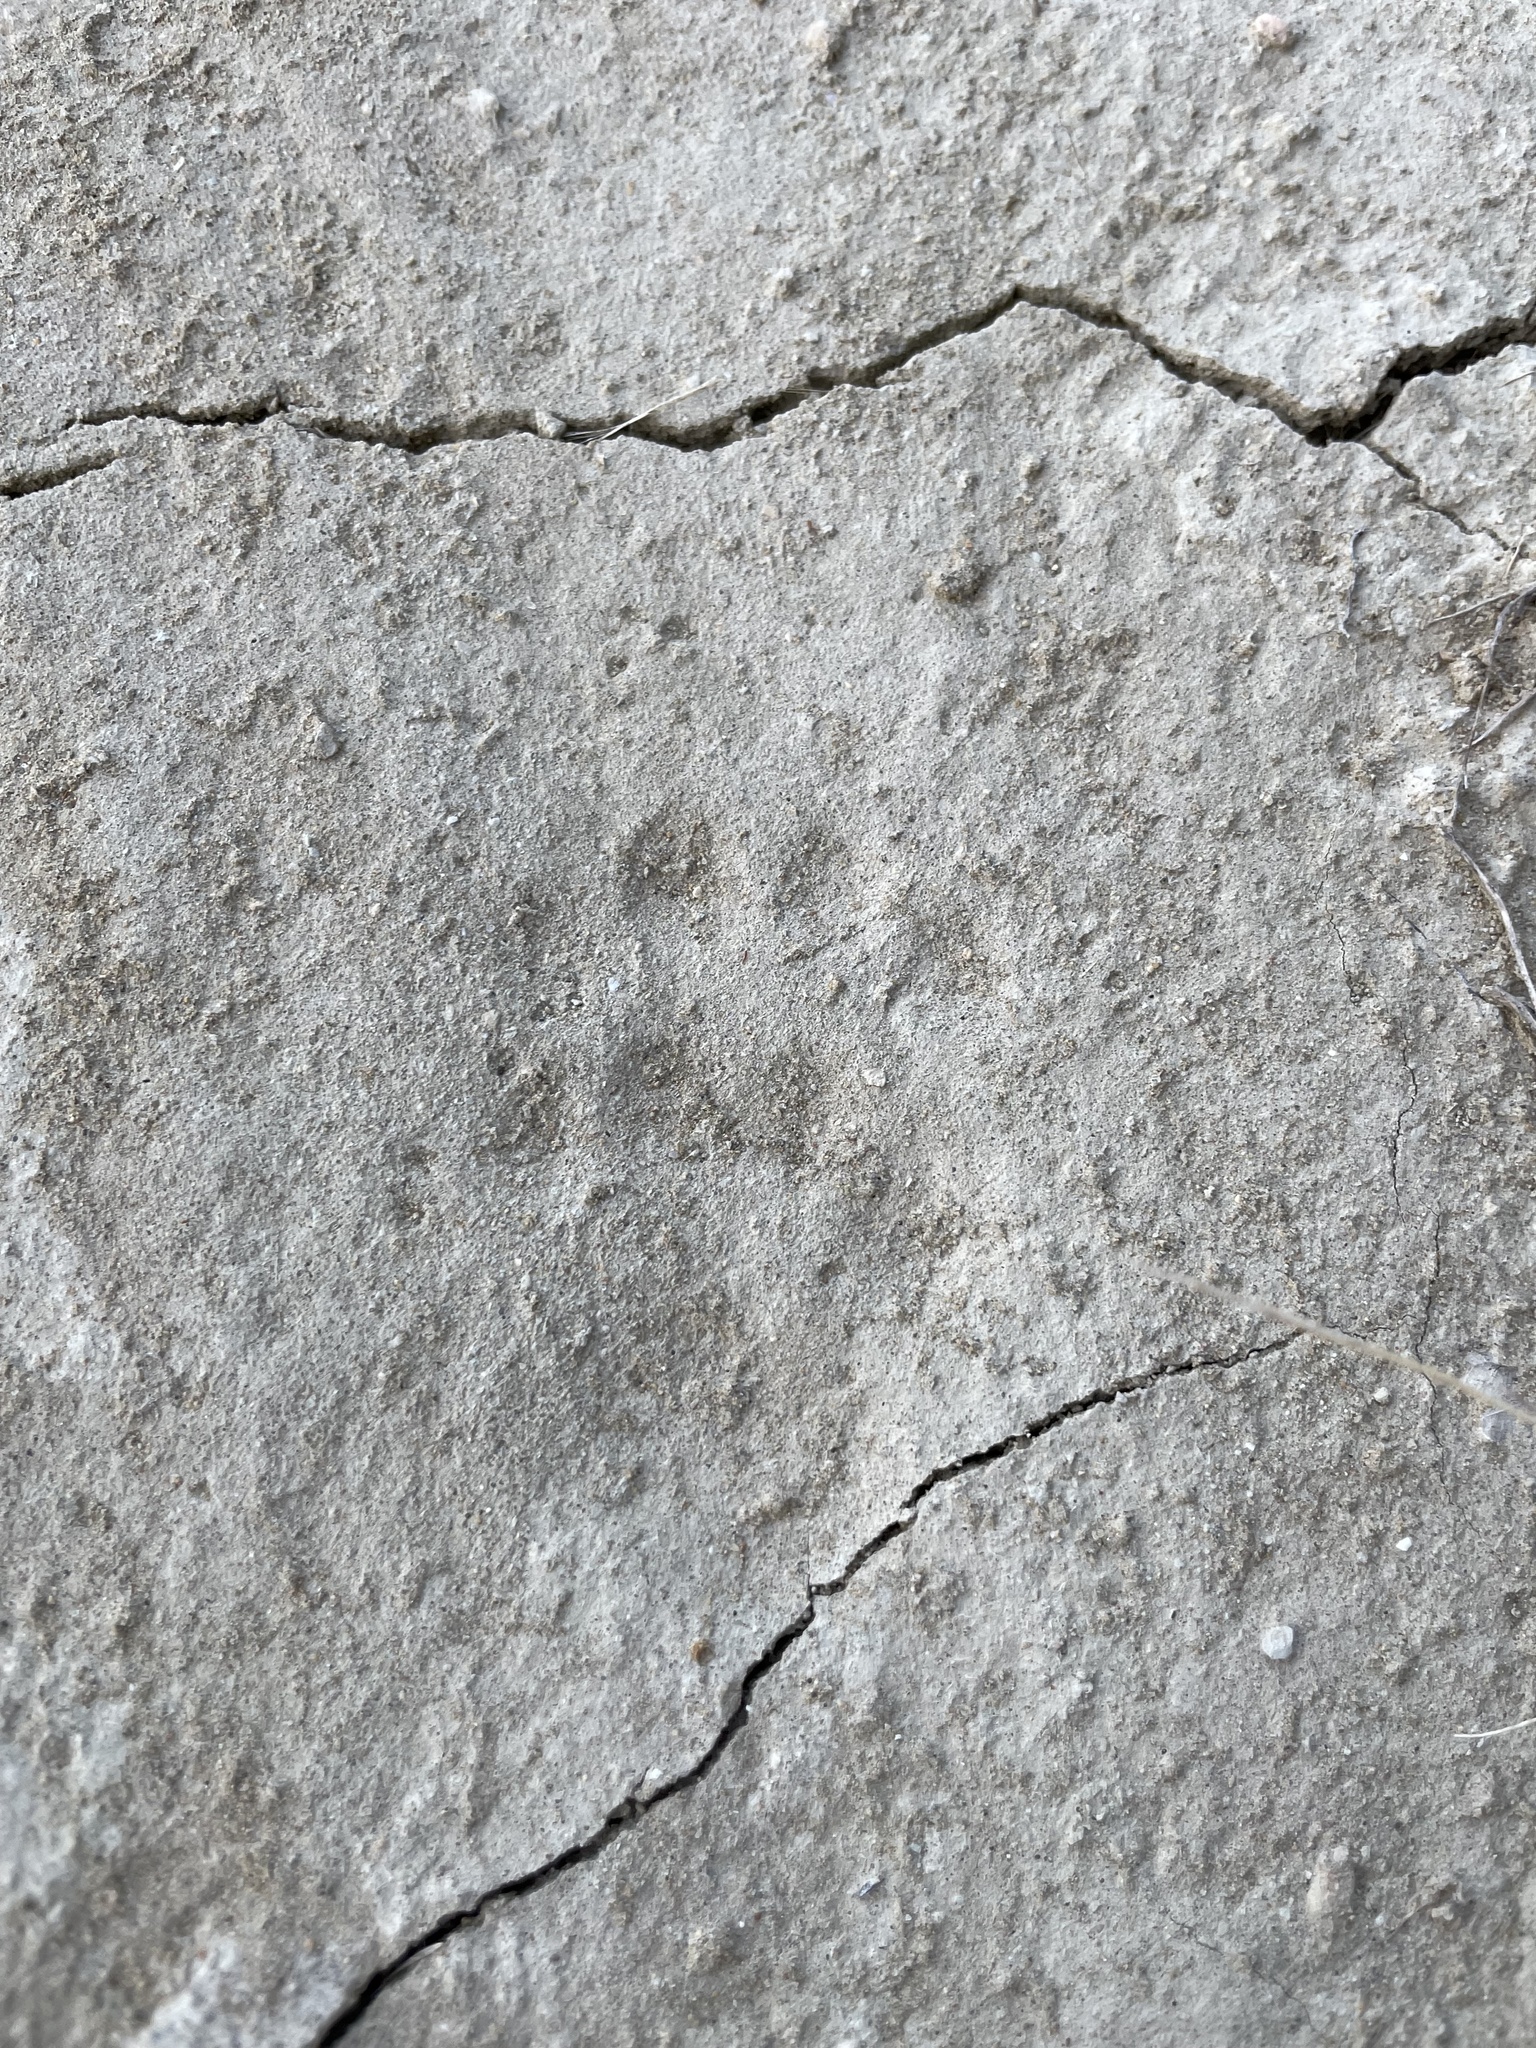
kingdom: Animalia
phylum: Chordata
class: Mammalia
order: Carnivora
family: Mustelidae
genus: Meles
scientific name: Meles meles
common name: Eurasian badger
